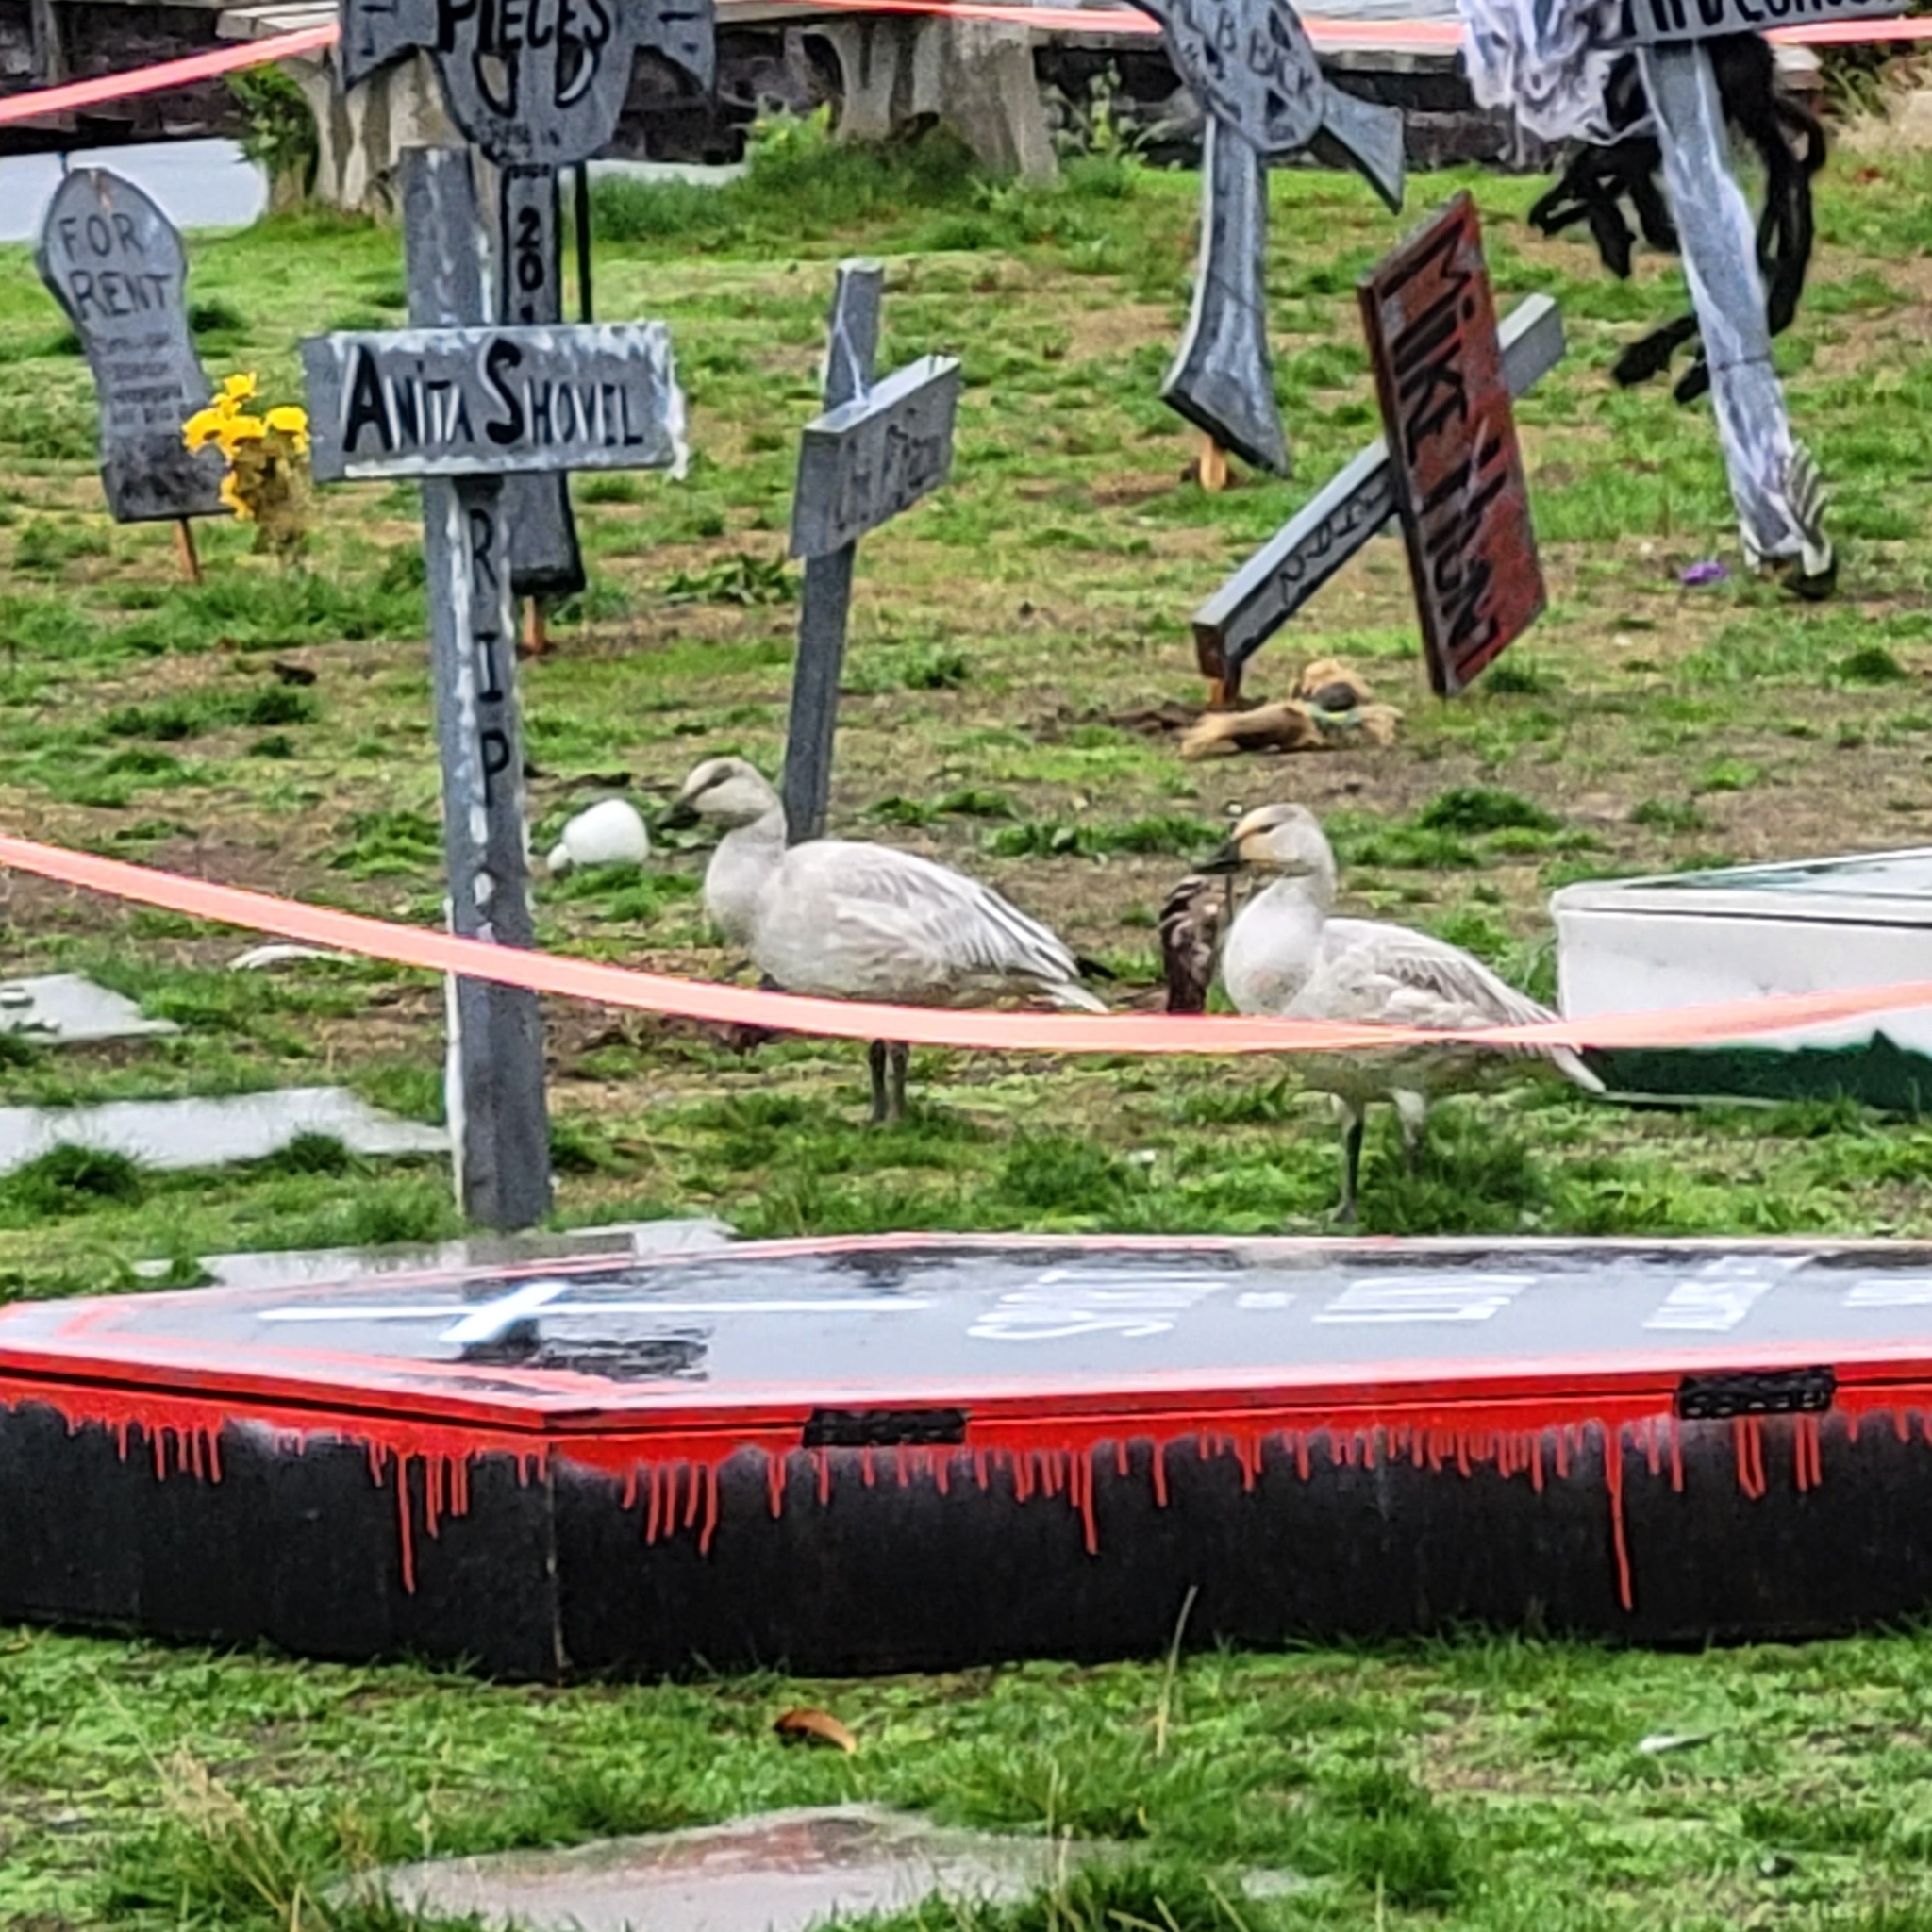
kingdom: Animalia
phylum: Chordata
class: Aves
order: Anseriformes
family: Anatidae
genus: Anser
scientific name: Anser caerulescens
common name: Snow goose
